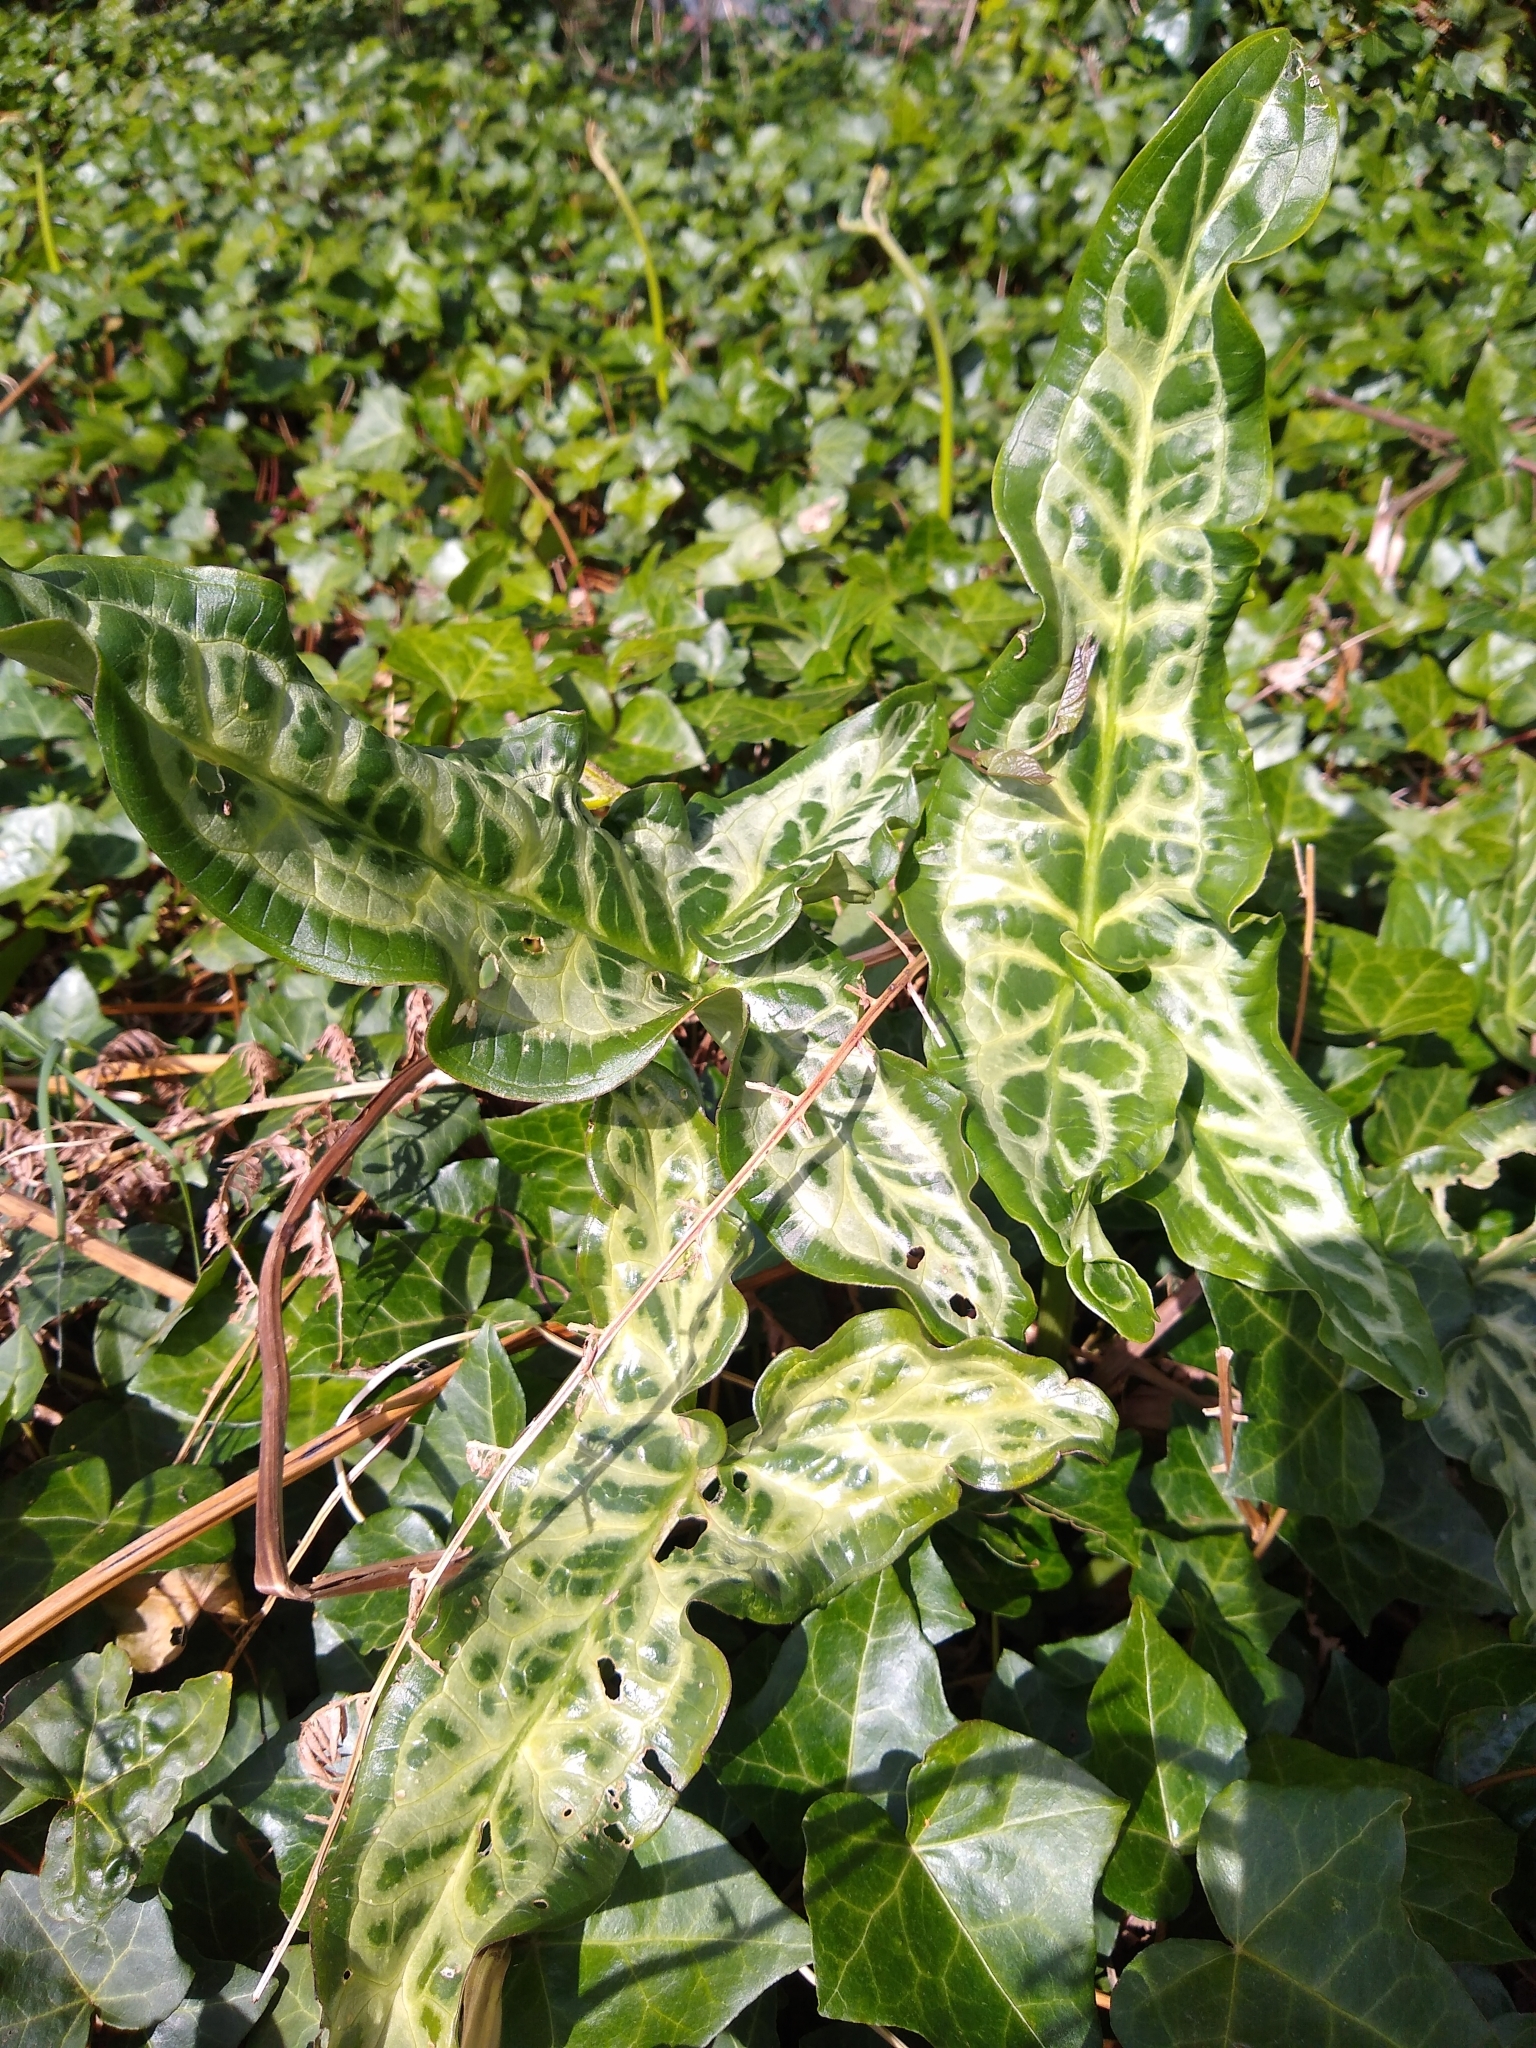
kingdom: Plantae
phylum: Tracheophyta
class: Liliopsida
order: Alismatales
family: Araceae
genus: Arum
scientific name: Arum italicum
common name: Italian lords-and-ladies
